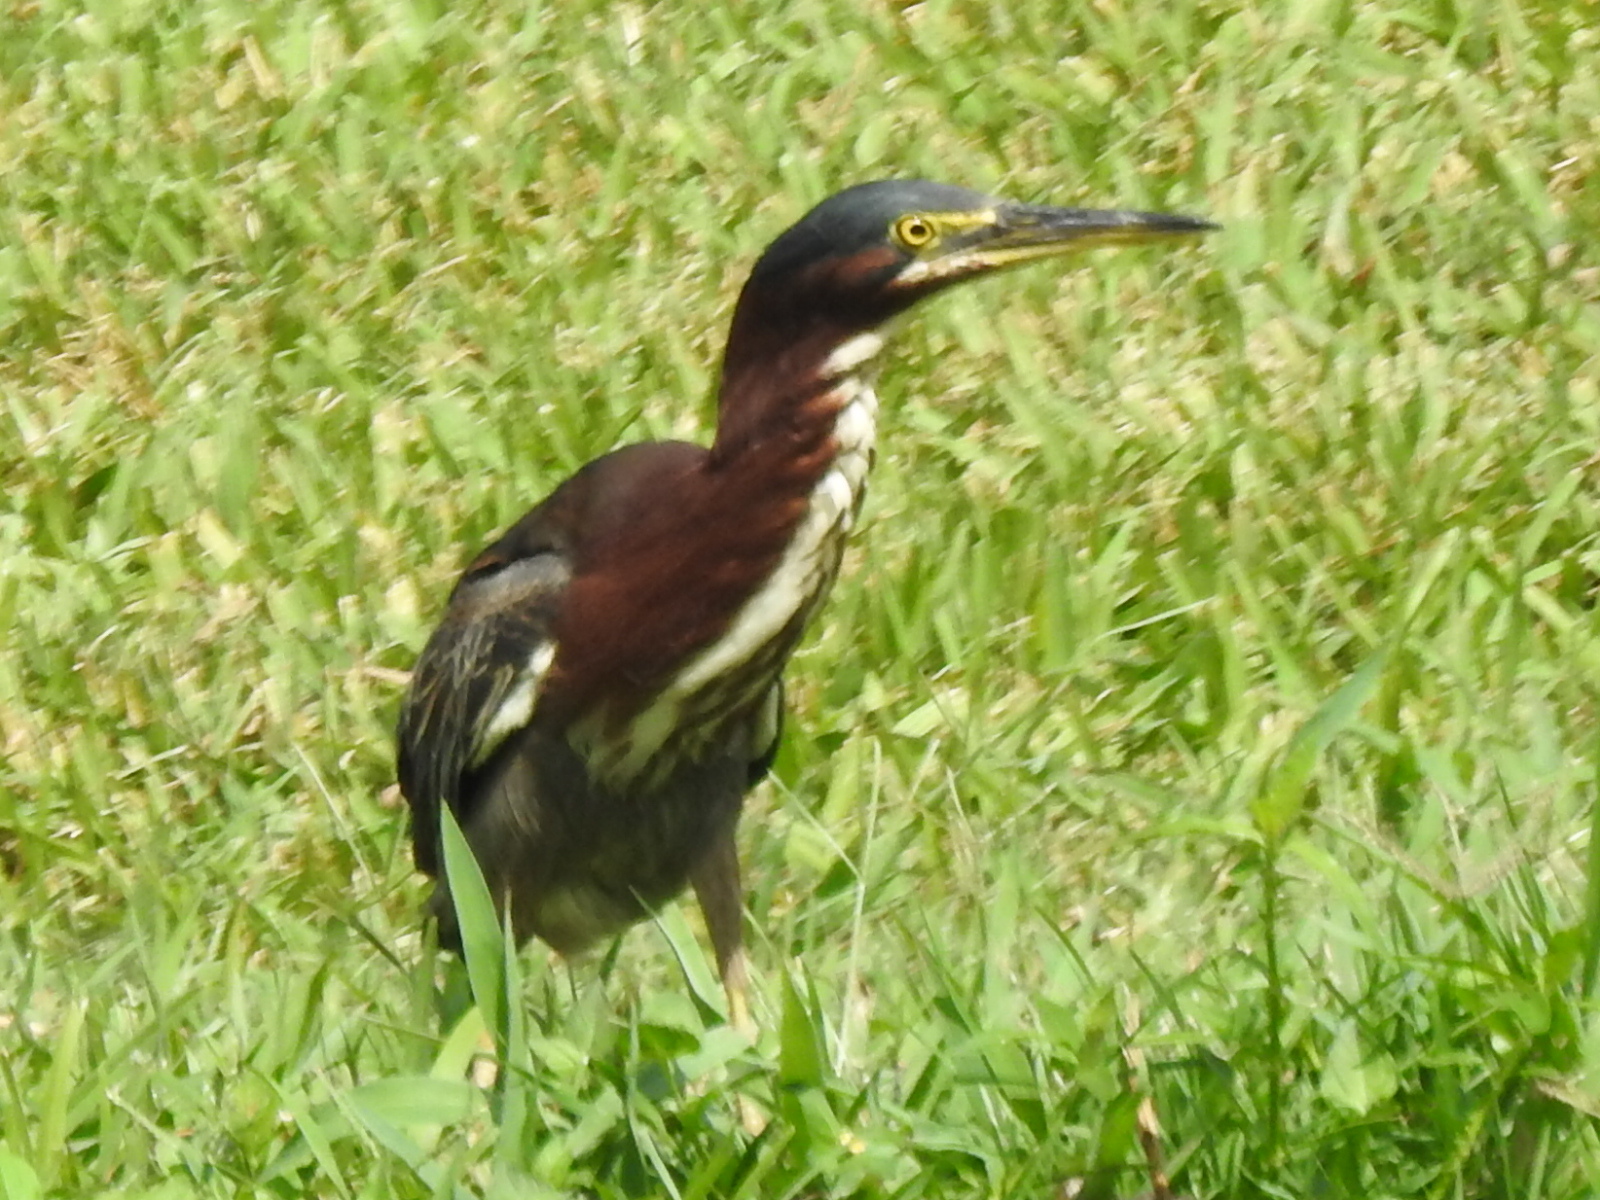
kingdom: Animalia
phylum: Chordata
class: Aves
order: Pelecaniformes
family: Ardeidae
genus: Butorides
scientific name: Butorides virescens
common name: Green heron
